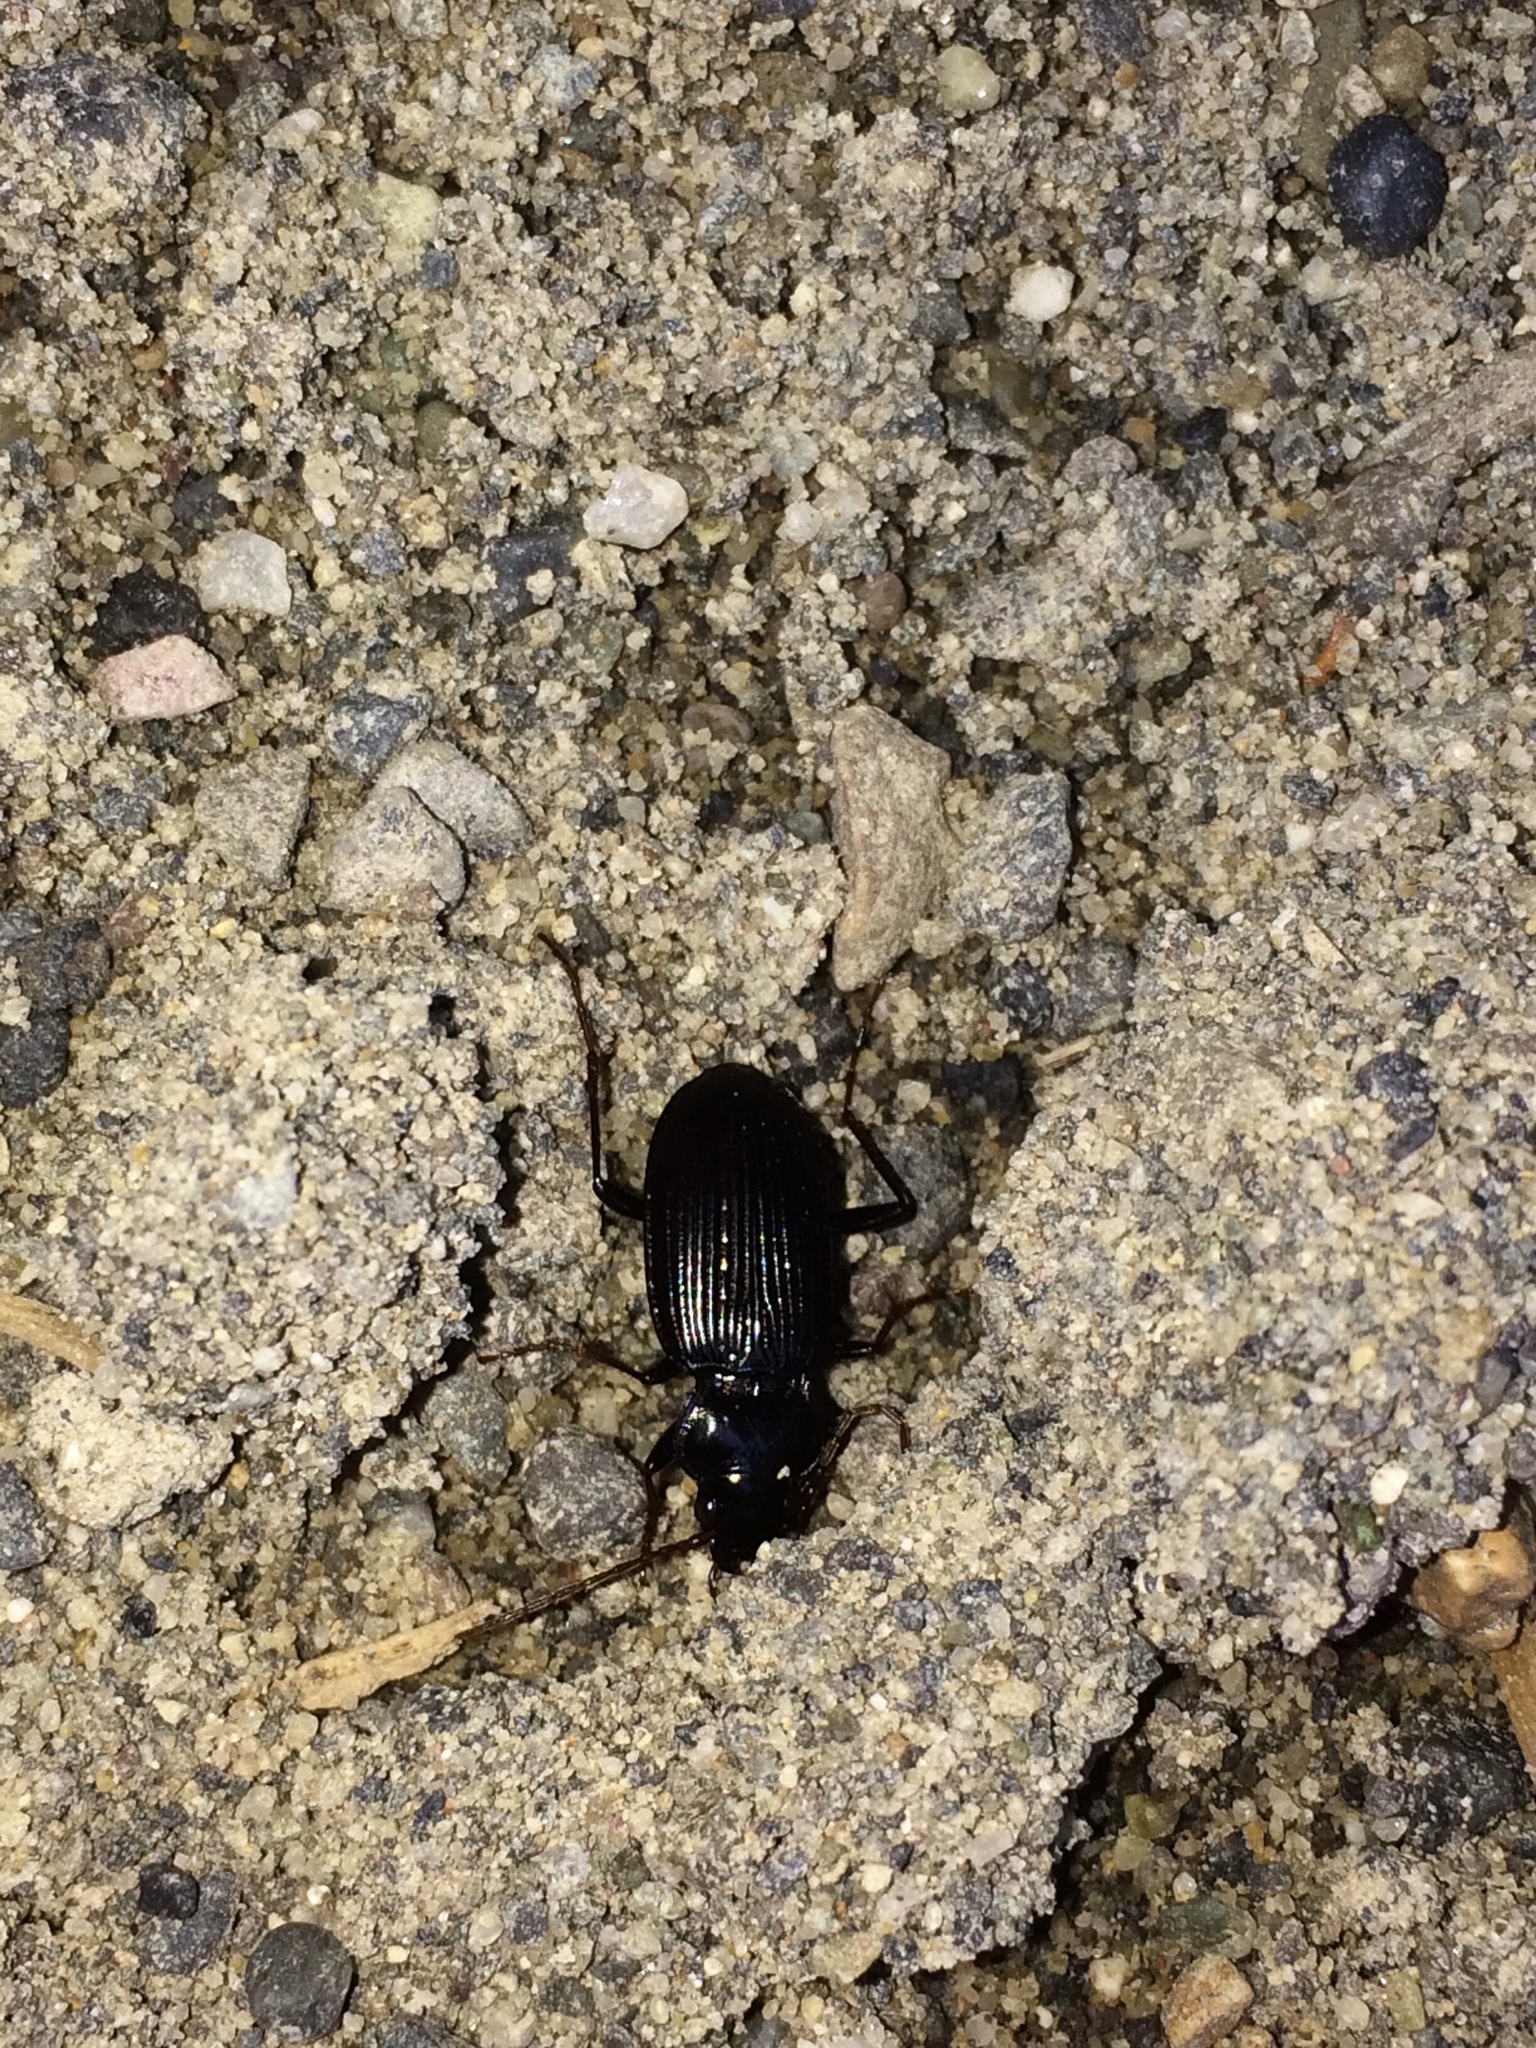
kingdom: Animalia
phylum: Arthropoda
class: Insecta
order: Coleoptera
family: Carabidae
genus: Nebria
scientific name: Nebria brevicollis
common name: Short-necked gazelle beetle
